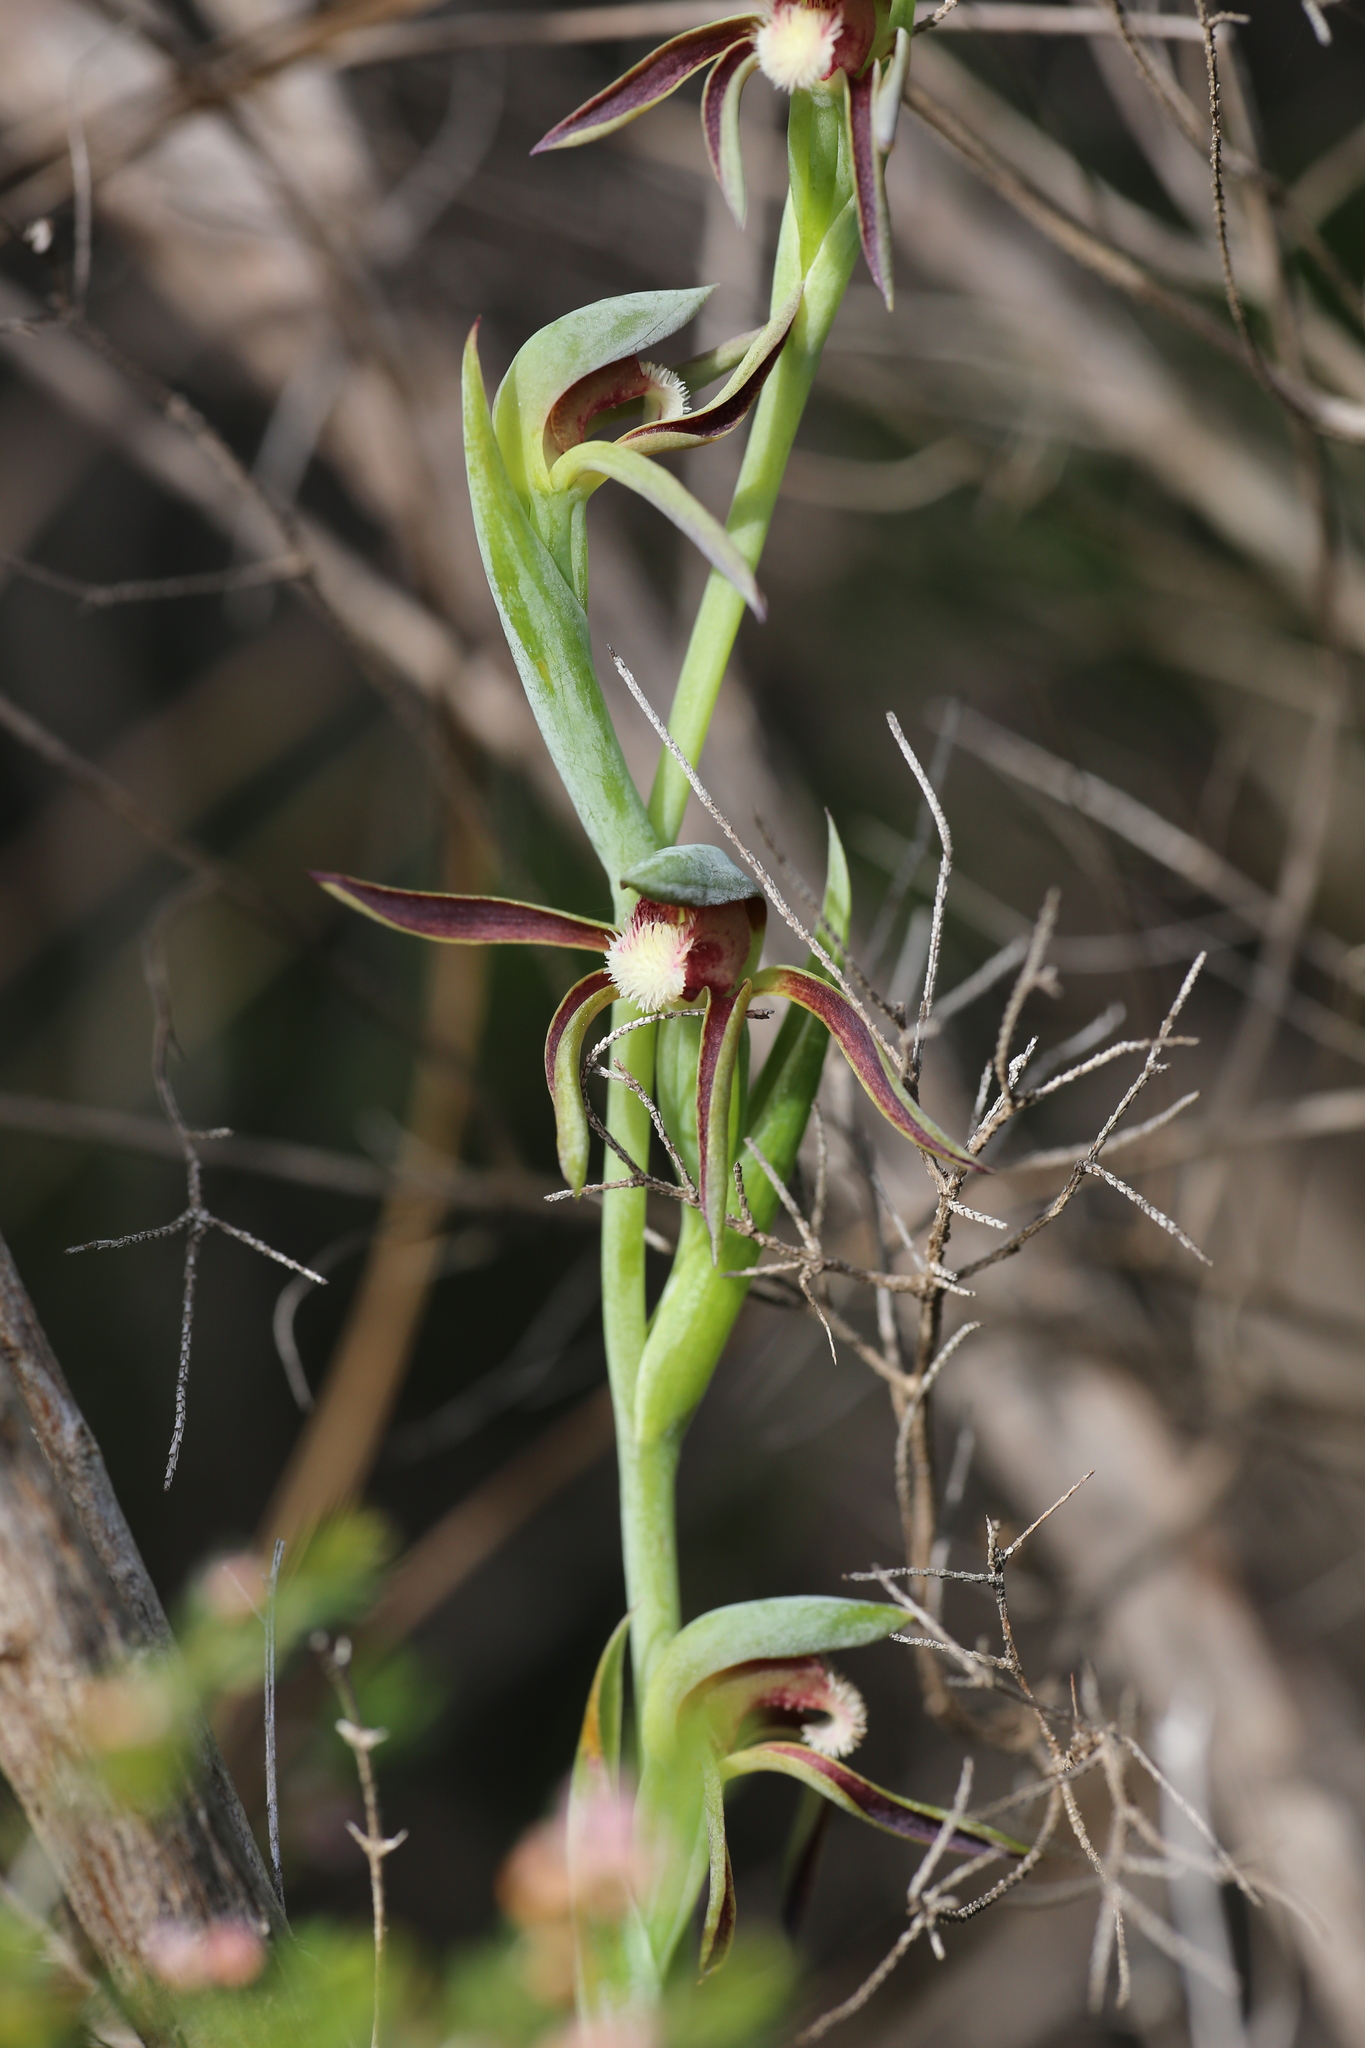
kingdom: Plantae
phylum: Tracheophyta
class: Liliopsida
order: Asparagales
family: Orchidaceae
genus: Lyperanthus
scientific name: Lyperanthus serratus
